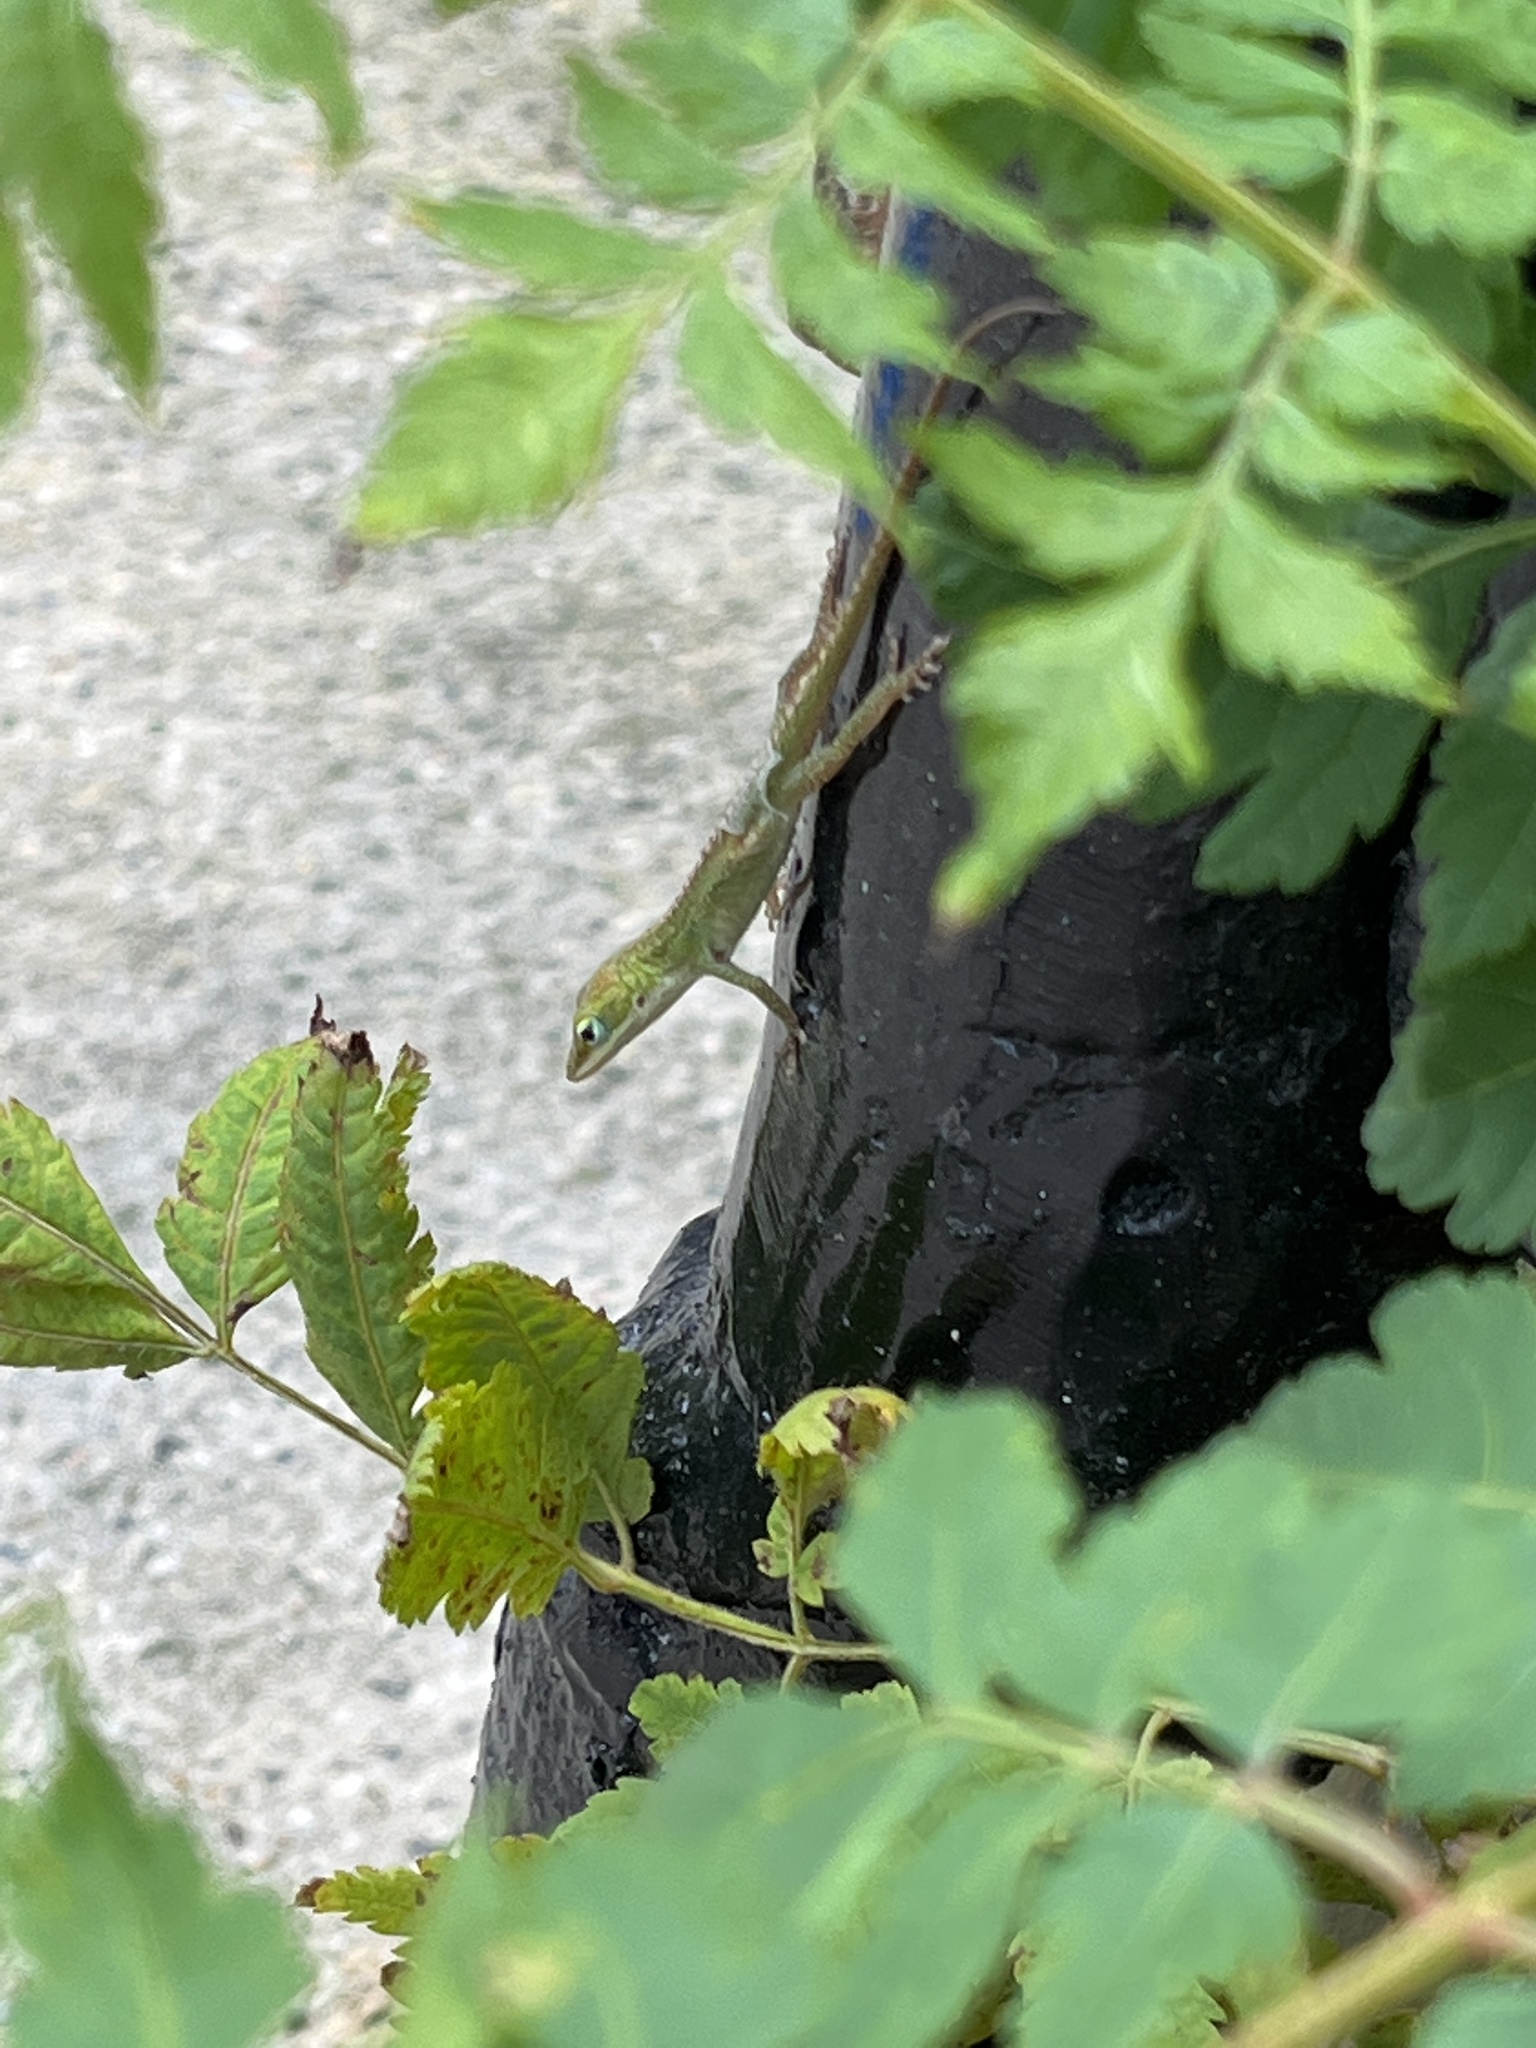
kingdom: Animalia
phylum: Chordata
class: Squamata
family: Dactyloidae
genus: Anolis
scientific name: Anolis carolinensis
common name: Green anole
